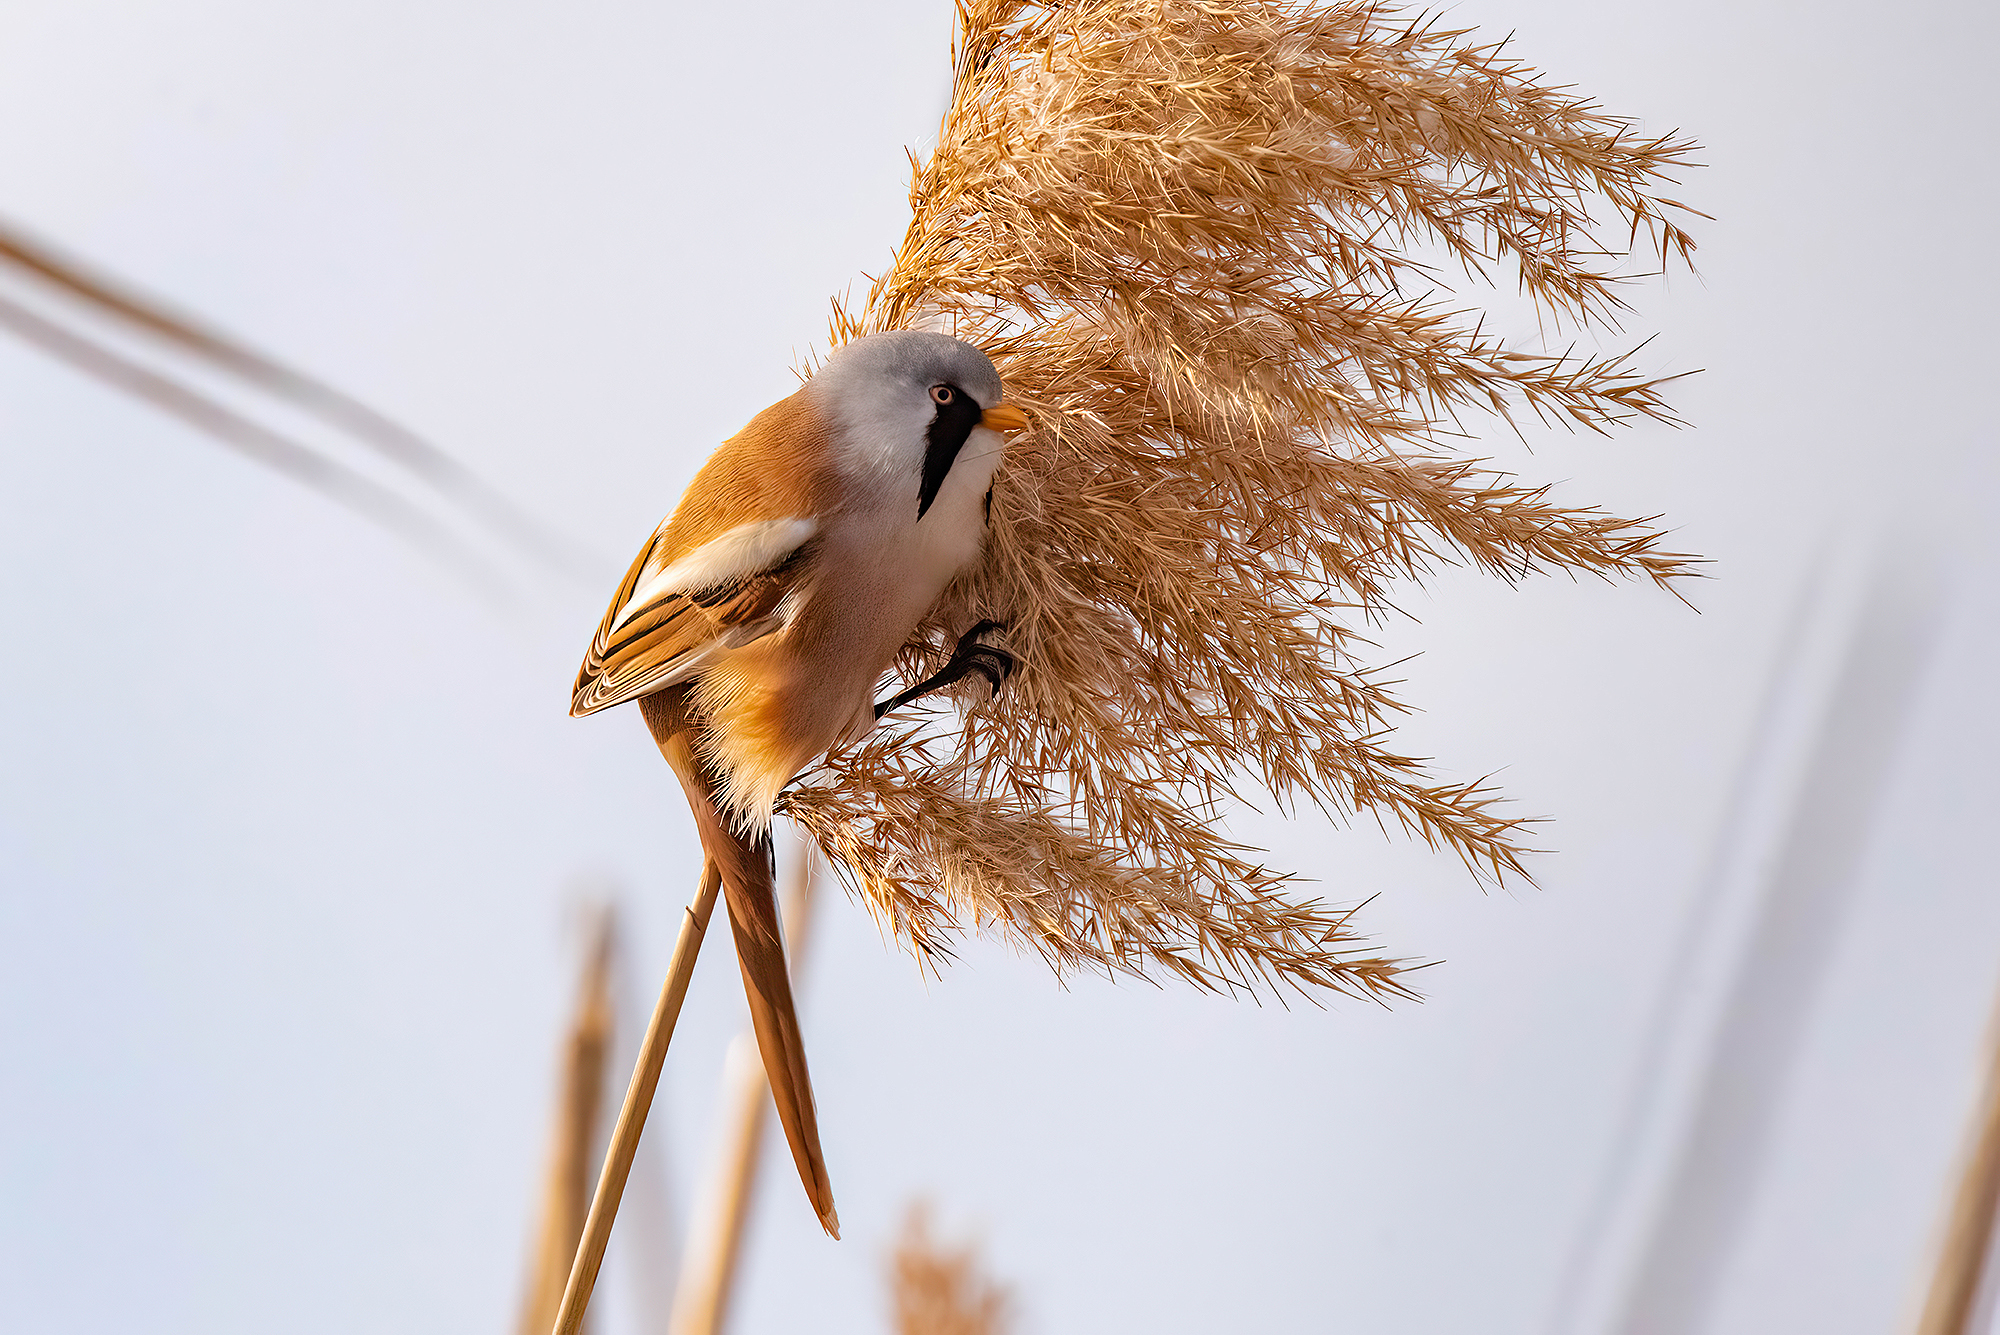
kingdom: Animalia
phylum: Chordata
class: Aves
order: Passeriformes
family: Panuridae
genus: Panurus
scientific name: Panurus biarmicus
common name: Bearded reedling
